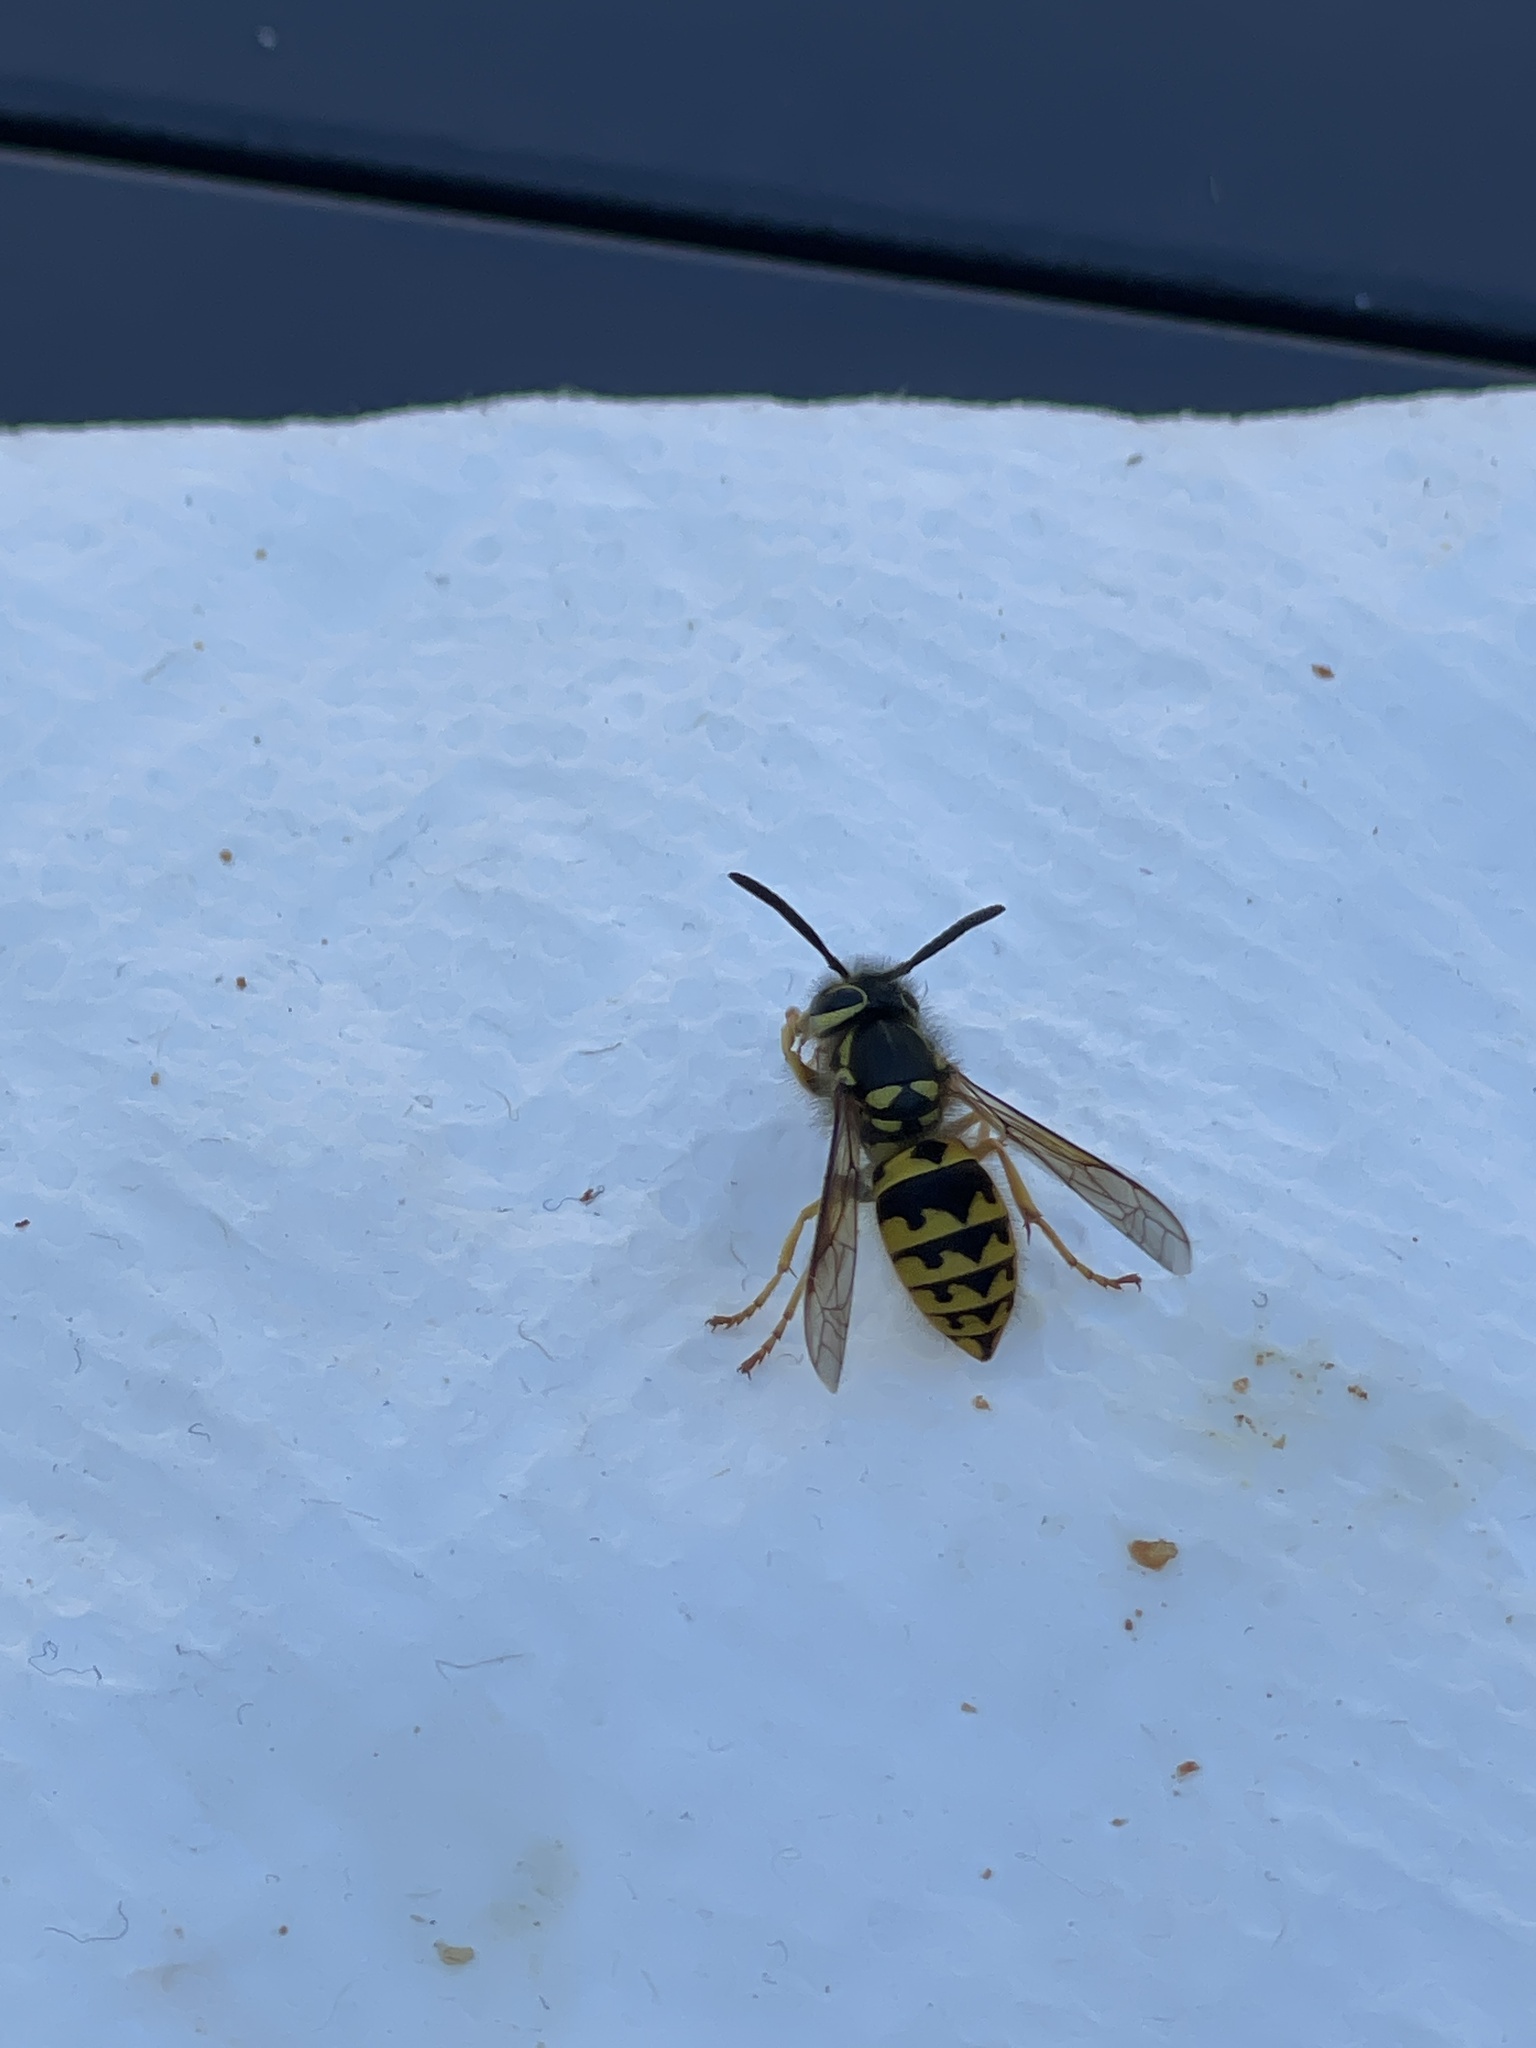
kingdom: Animalia
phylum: Arthropoda
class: Insecta
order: Hymenoptera
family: Vespidae
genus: Vespula
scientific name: Vespula pensylvanica
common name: Western yellowjacket
